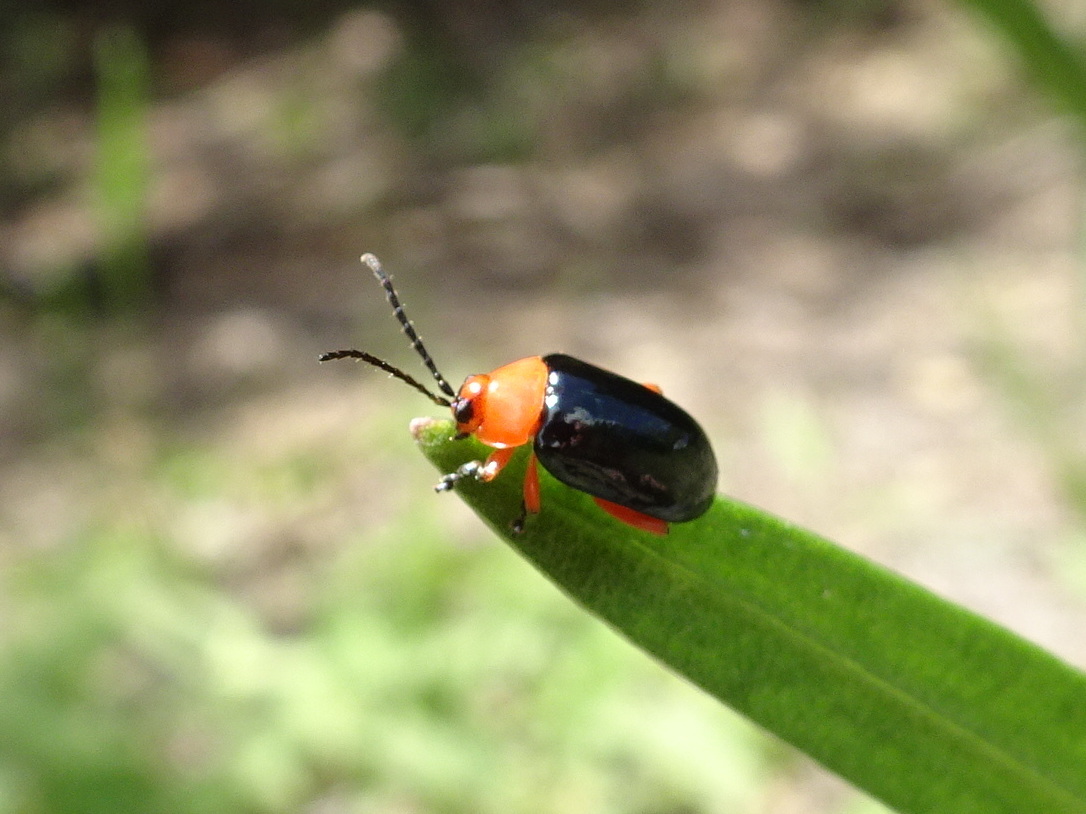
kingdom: Animalia
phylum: Arthropoda
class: Insecta
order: Coleoptera
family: Chrysomelidae
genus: Asphaera
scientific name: Asphaera lustrans
